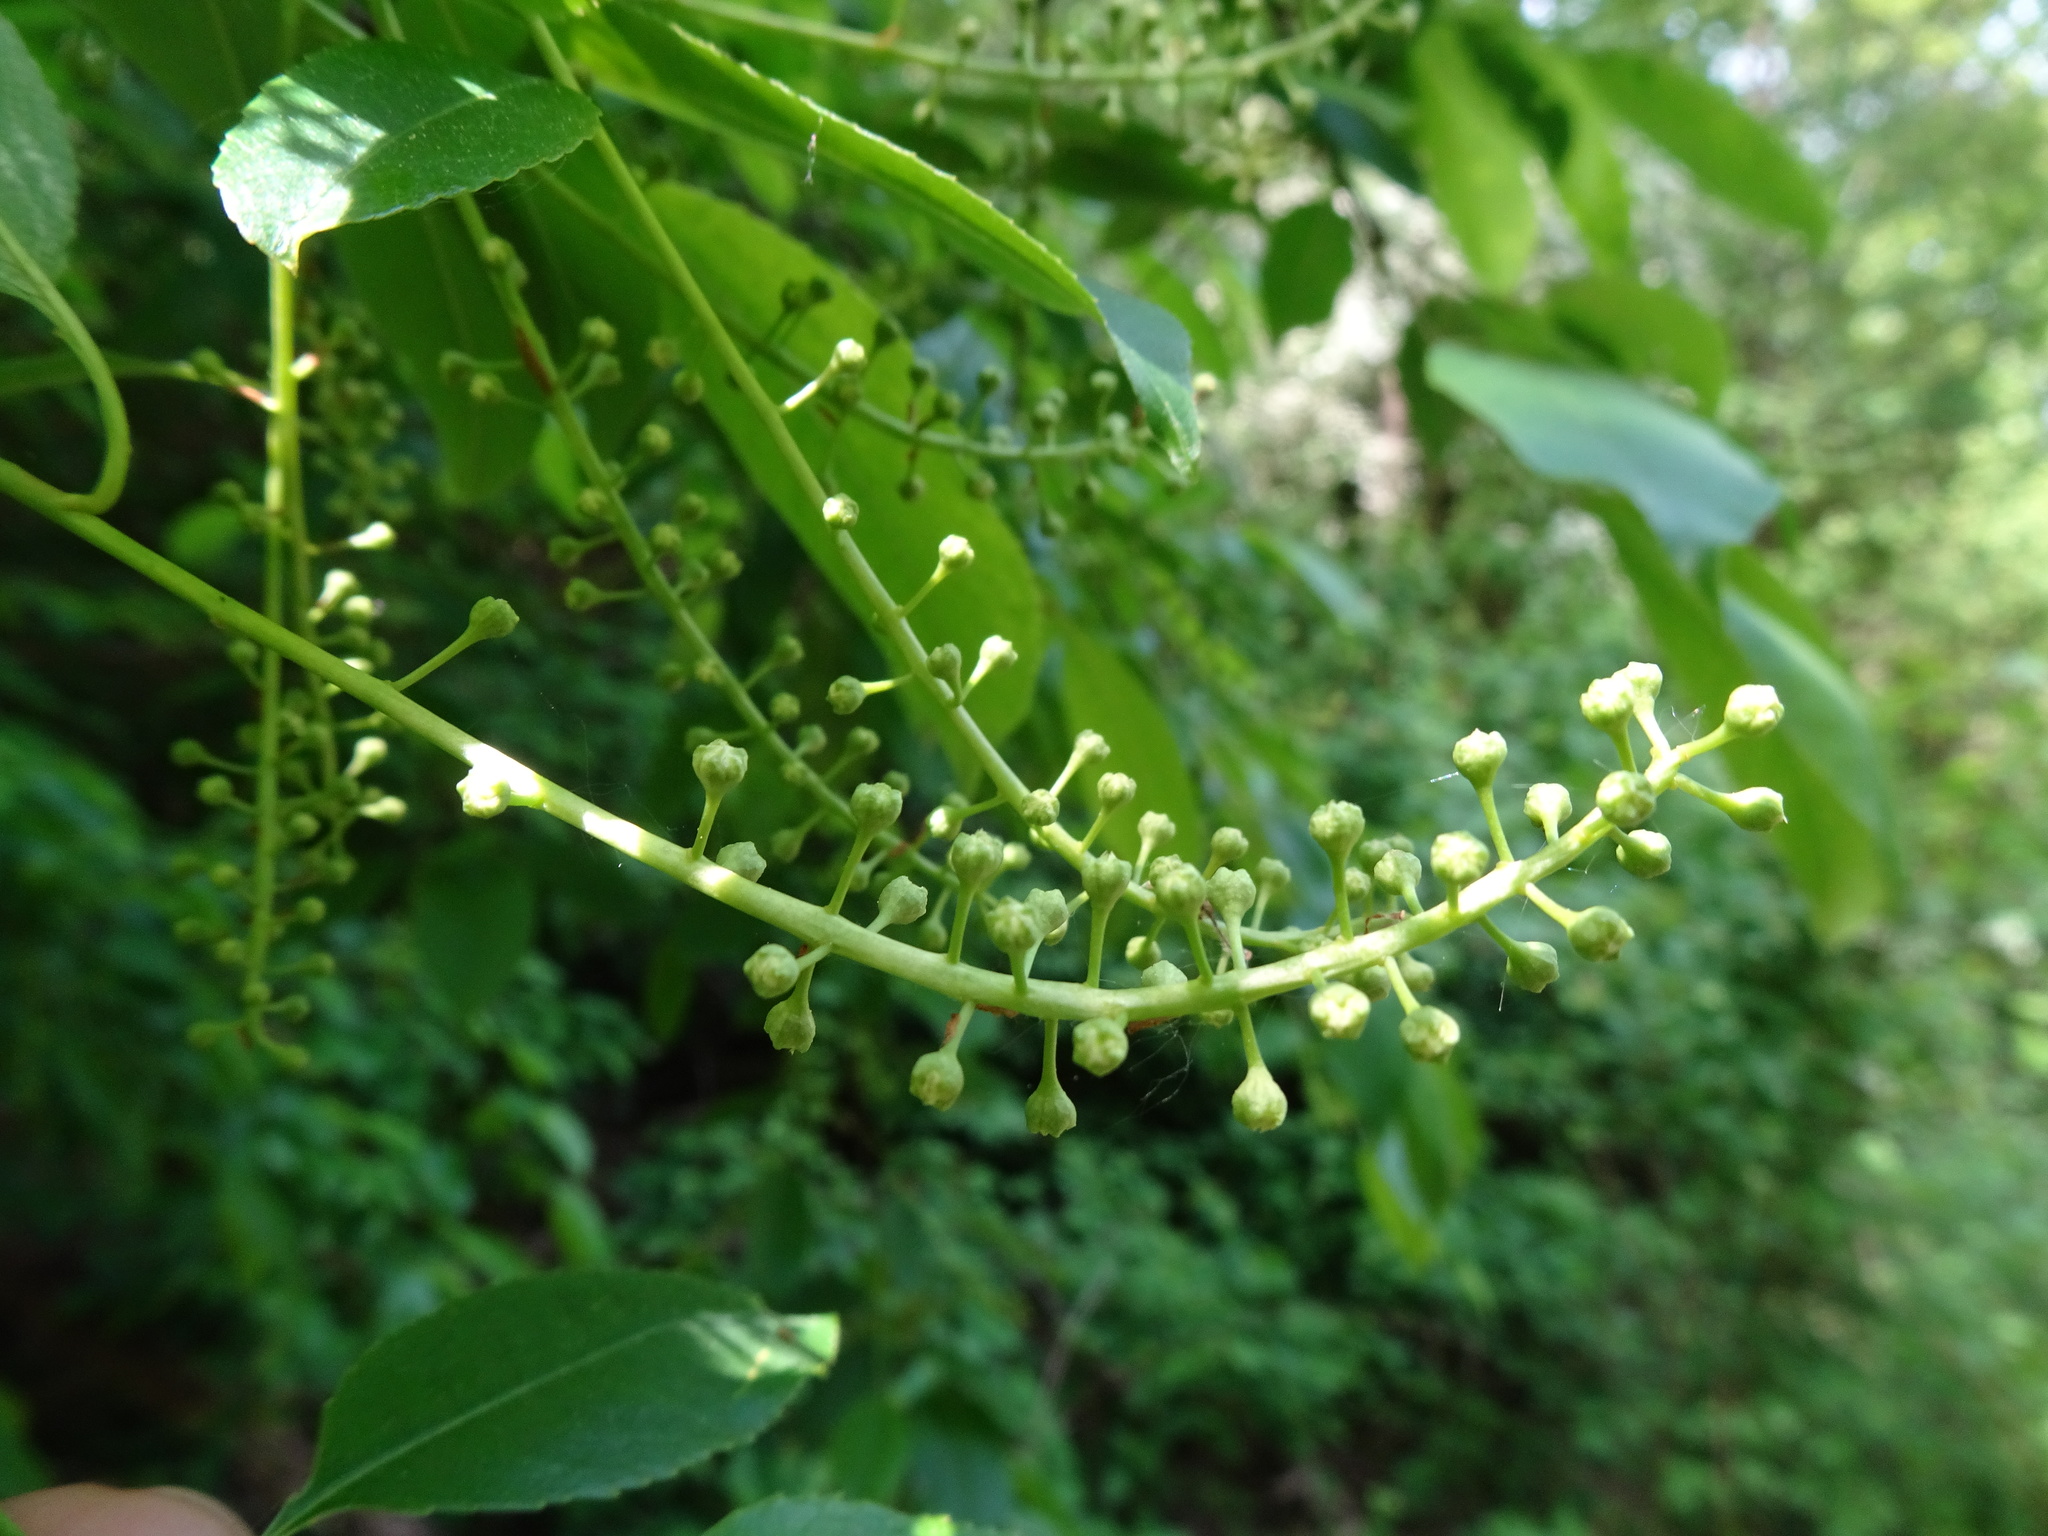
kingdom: Plantae
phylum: Tracheophyta
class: Magnoliopsida
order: Rosales
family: Rosaceae
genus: Prunus
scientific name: Prunus padus
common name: Bird cherry
